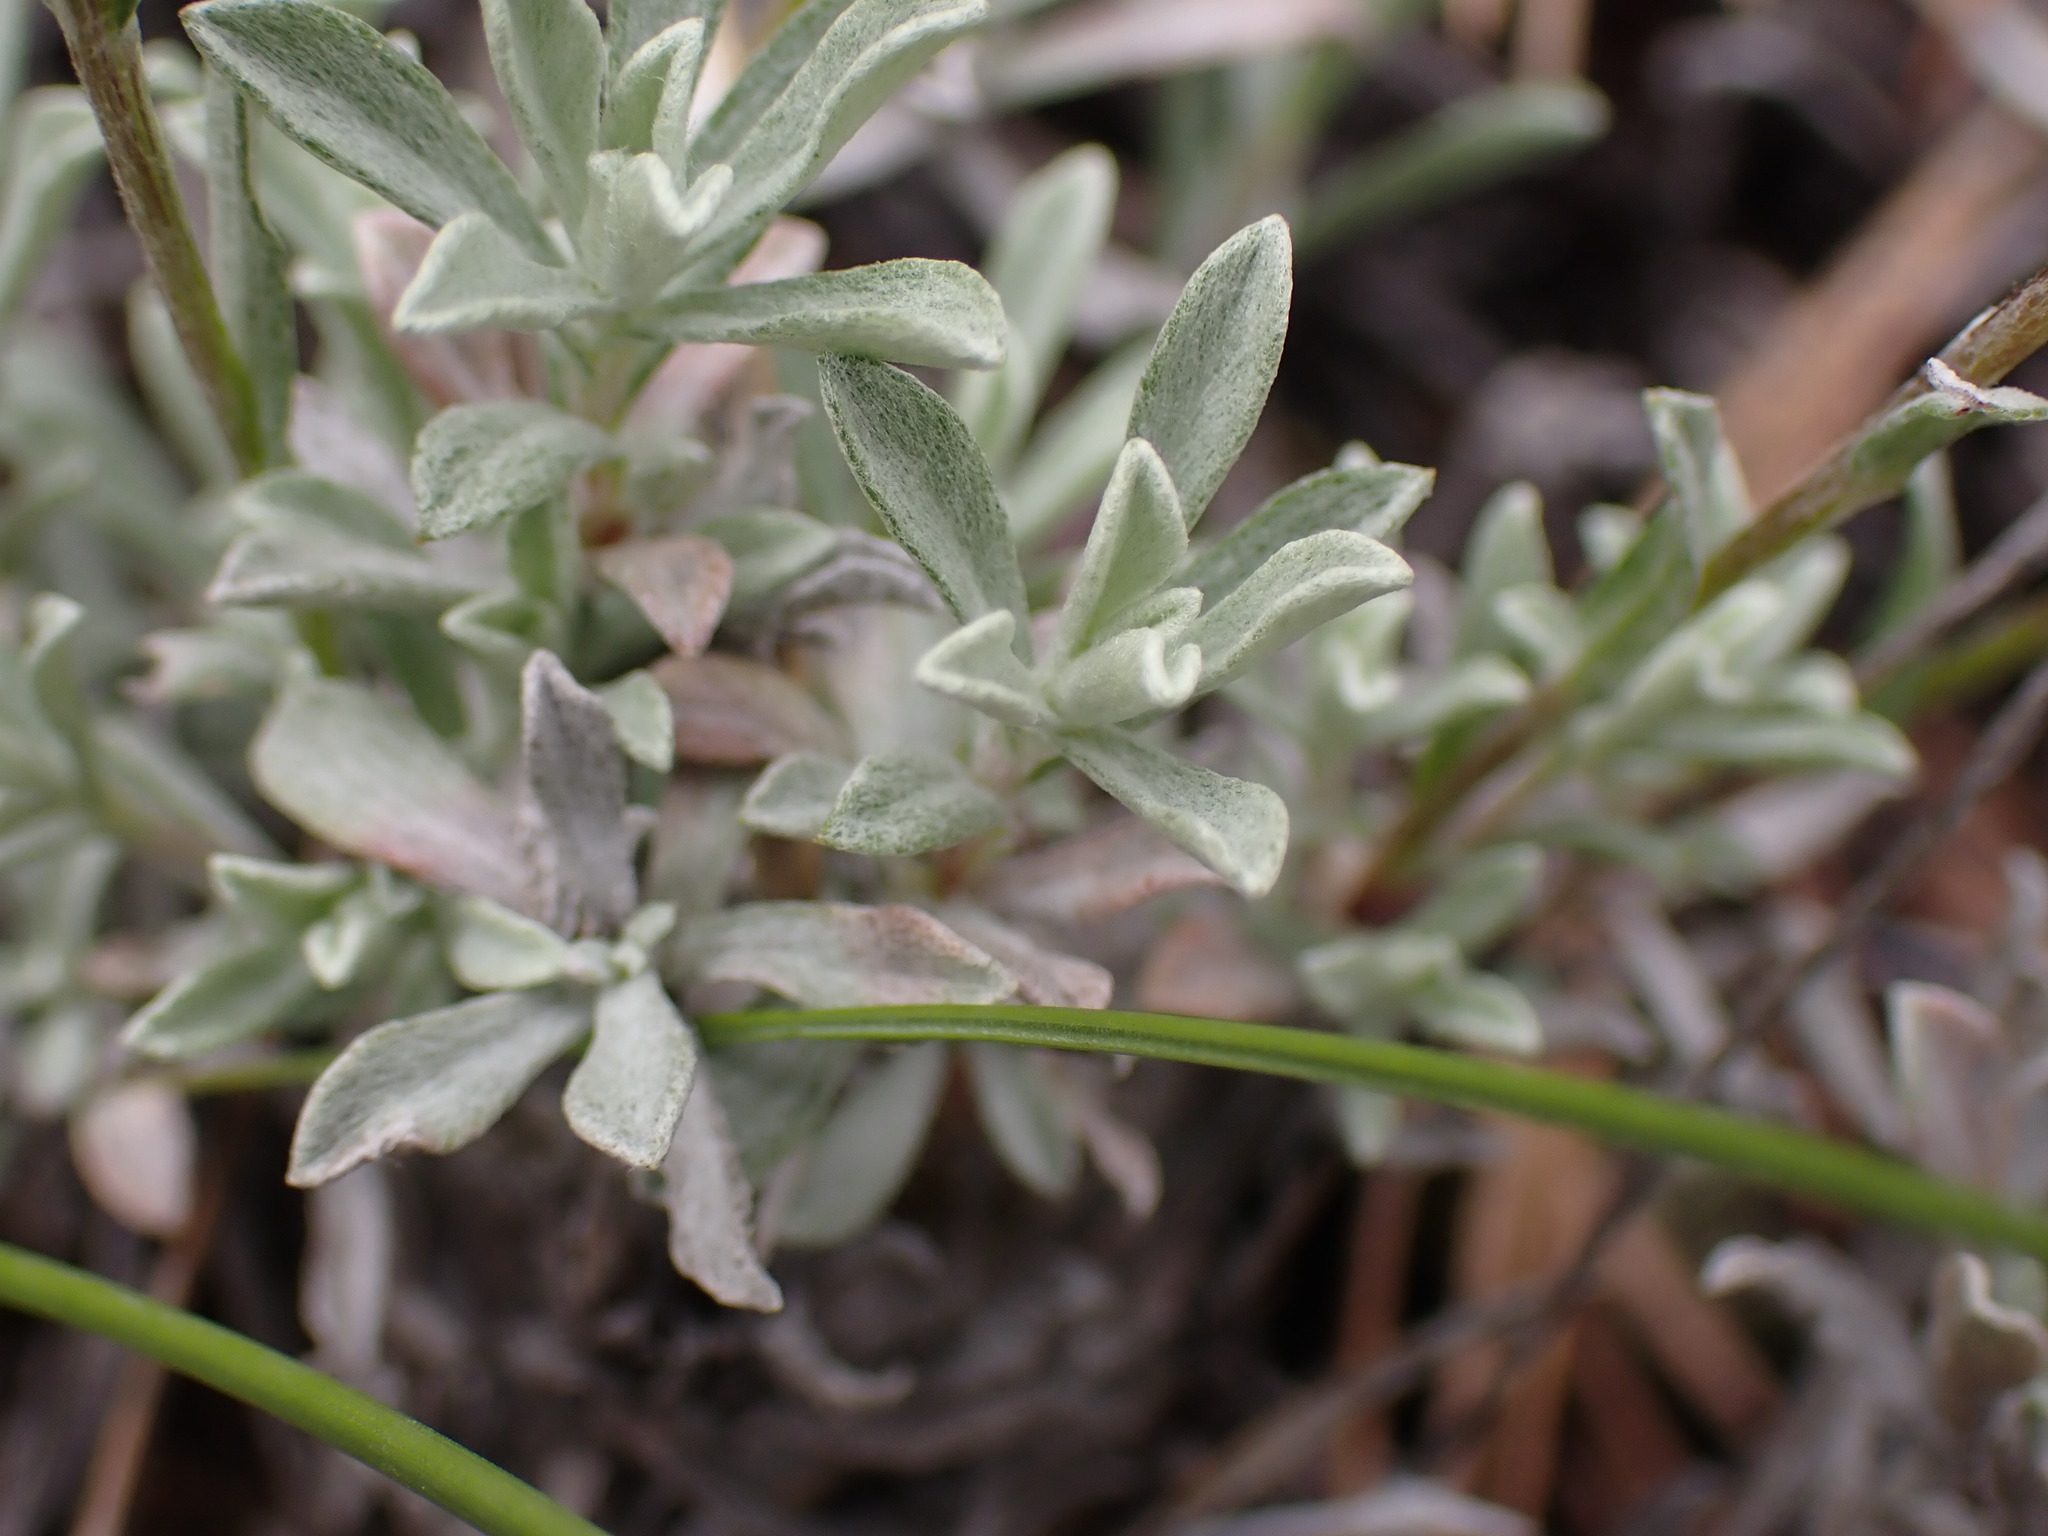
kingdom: Plantae
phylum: Tracheophyta
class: Magnoliopsida
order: Asterales
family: Asteraceae
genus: Antennaria
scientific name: Antennaria umbrinella
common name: Brown pussytoes
